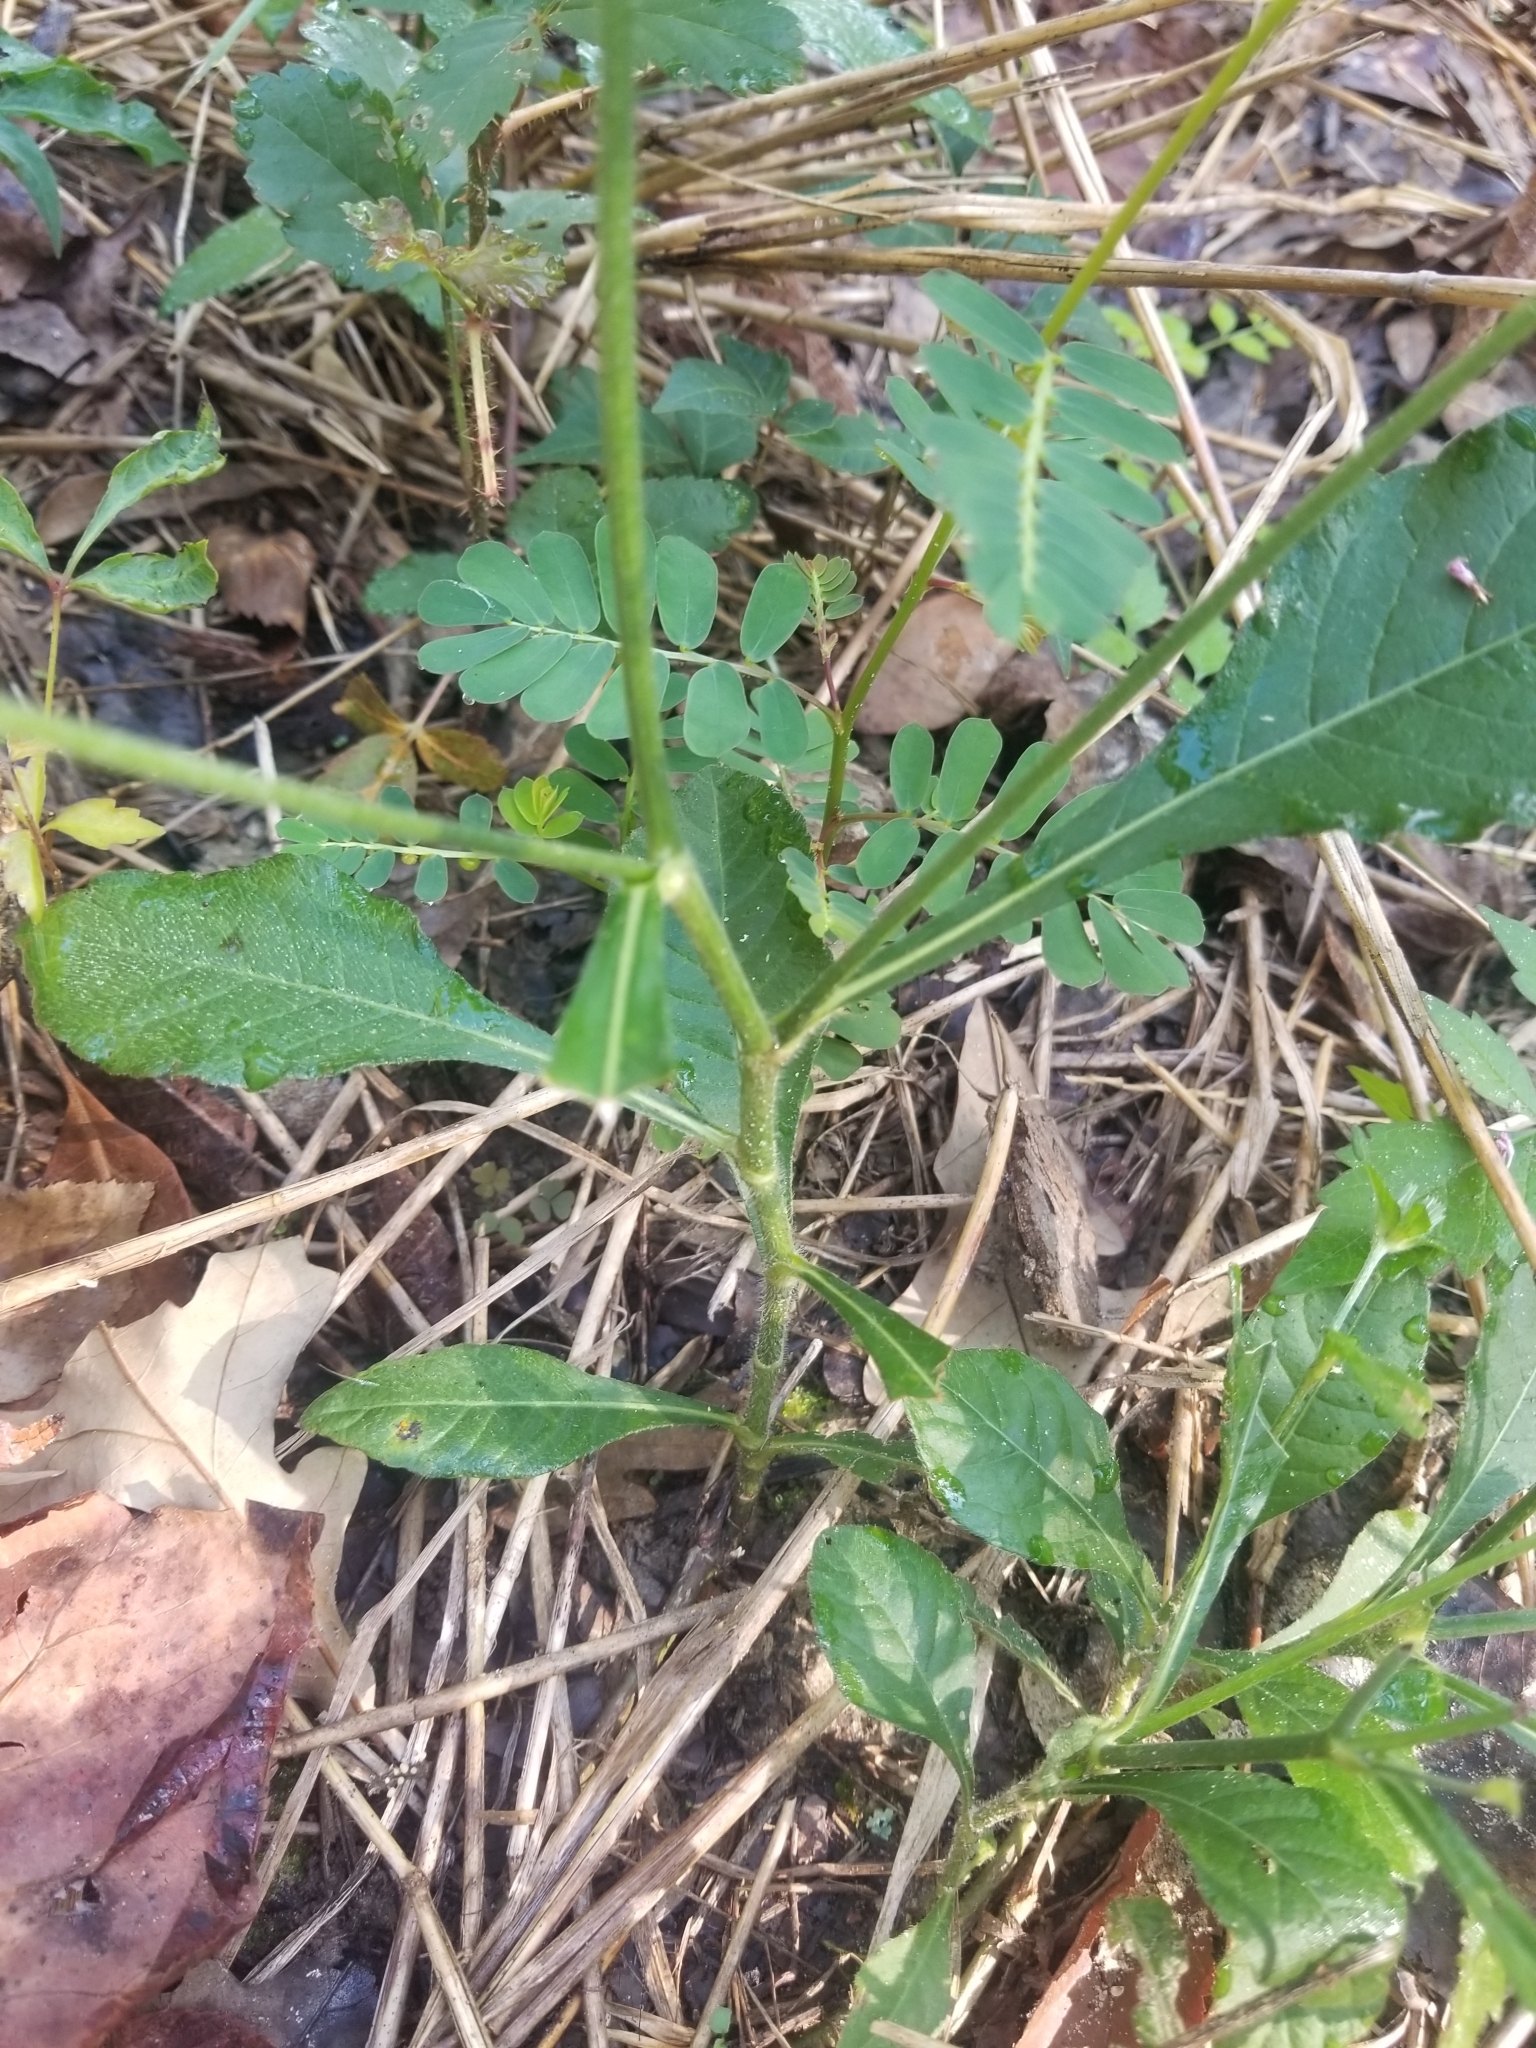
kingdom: Plantae
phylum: Tracheophyta
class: Magnoliopsida
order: Asterales
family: Asteraceae
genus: Elephantopus
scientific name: Elephantopus carolinianus
